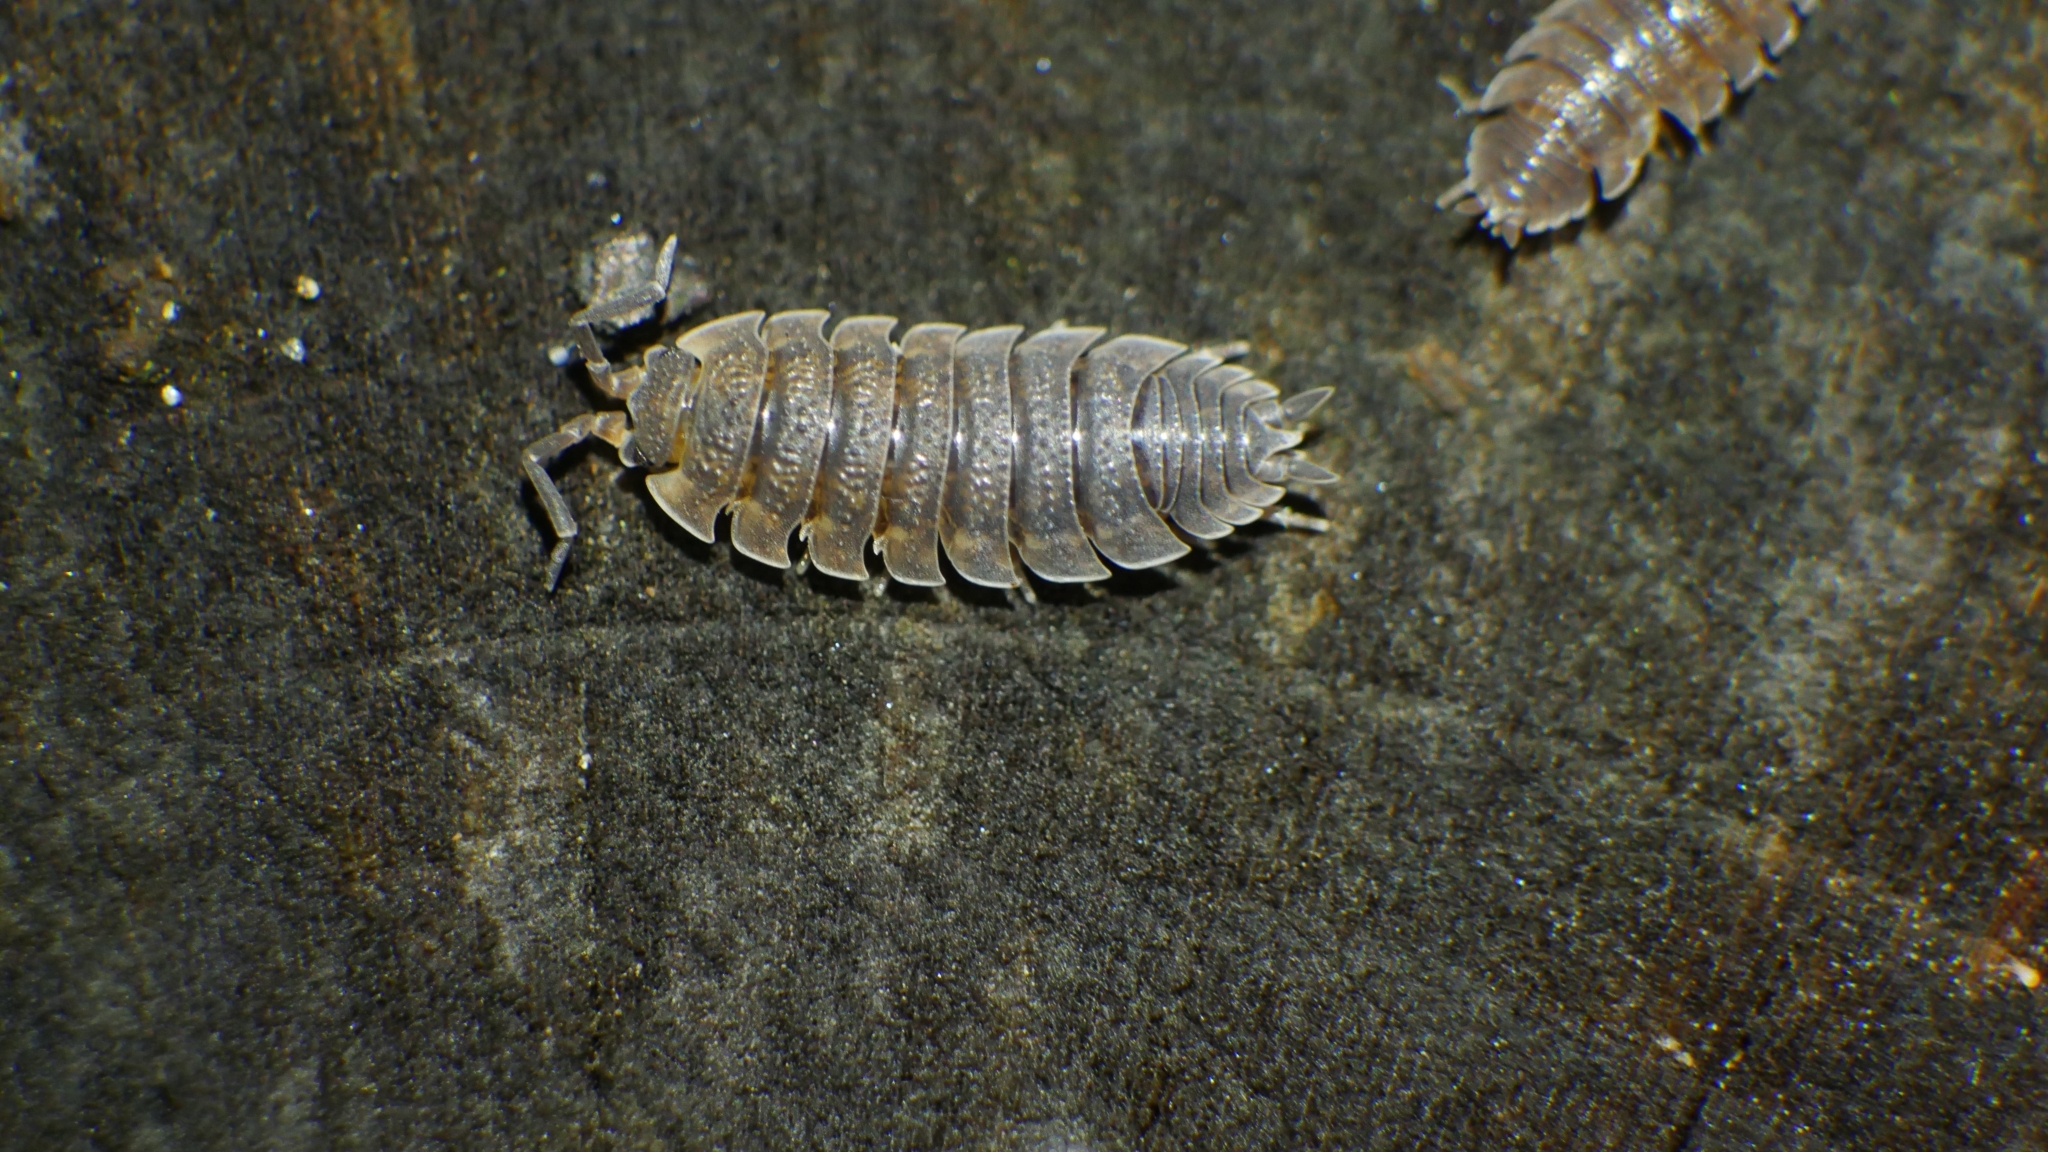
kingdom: Animalia
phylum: Arthropoda
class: Malacostraca
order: Isopoda
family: Porcellionidae
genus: Porcellio
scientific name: Porcellio scaber
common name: Common rough woodlouse
